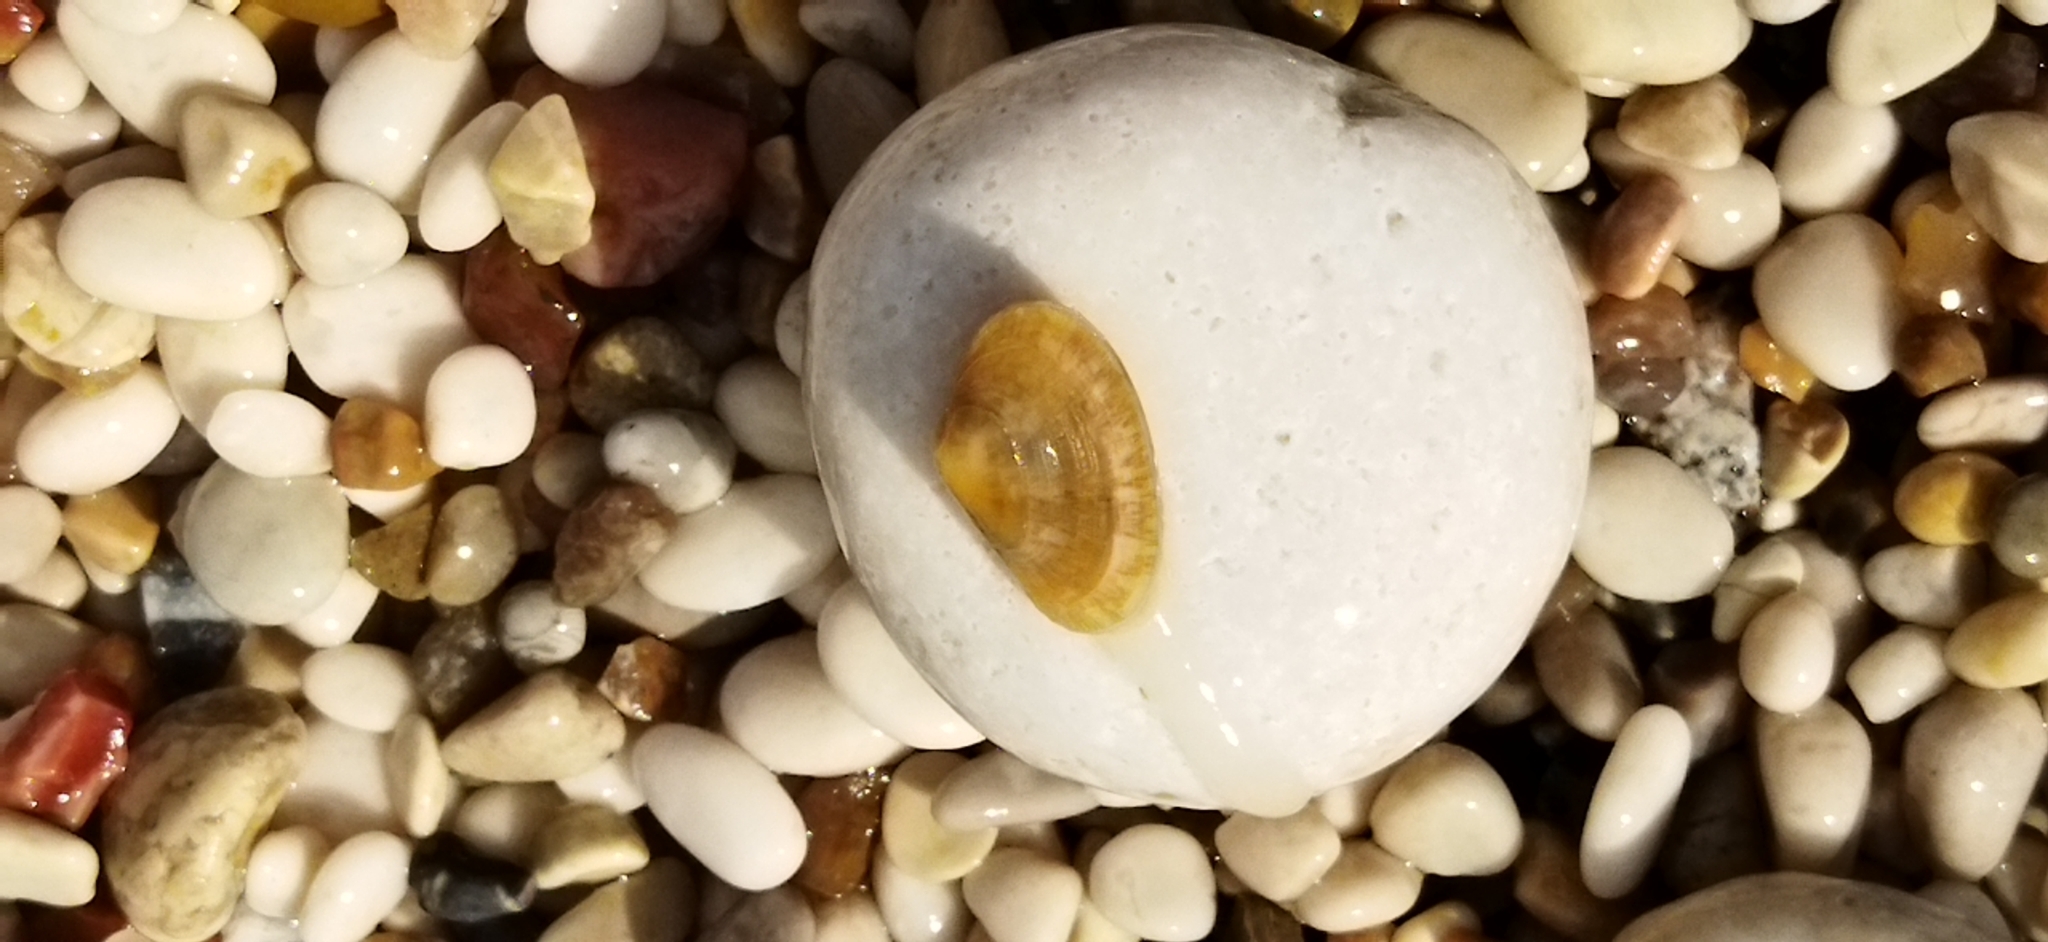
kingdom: Animalia
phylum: Mollusca
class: Bivalvia
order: Venerida
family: Mesodesmatidae
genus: Donacilla
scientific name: Donacilla cornea
